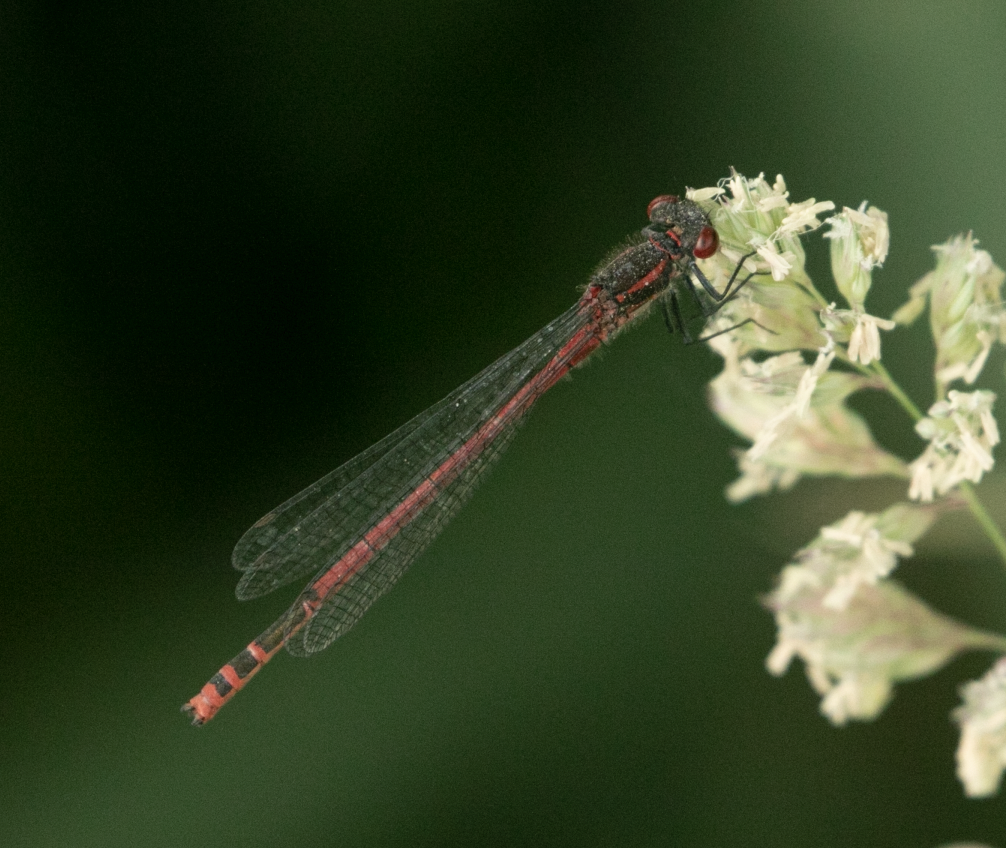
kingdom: Animalia
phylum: Arthropoda
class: Insecta
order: Odonata
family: Coenagrionidae
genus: Pyrrhosoma
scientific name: Pyrrhosoma nymphula
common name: Large red damsel
